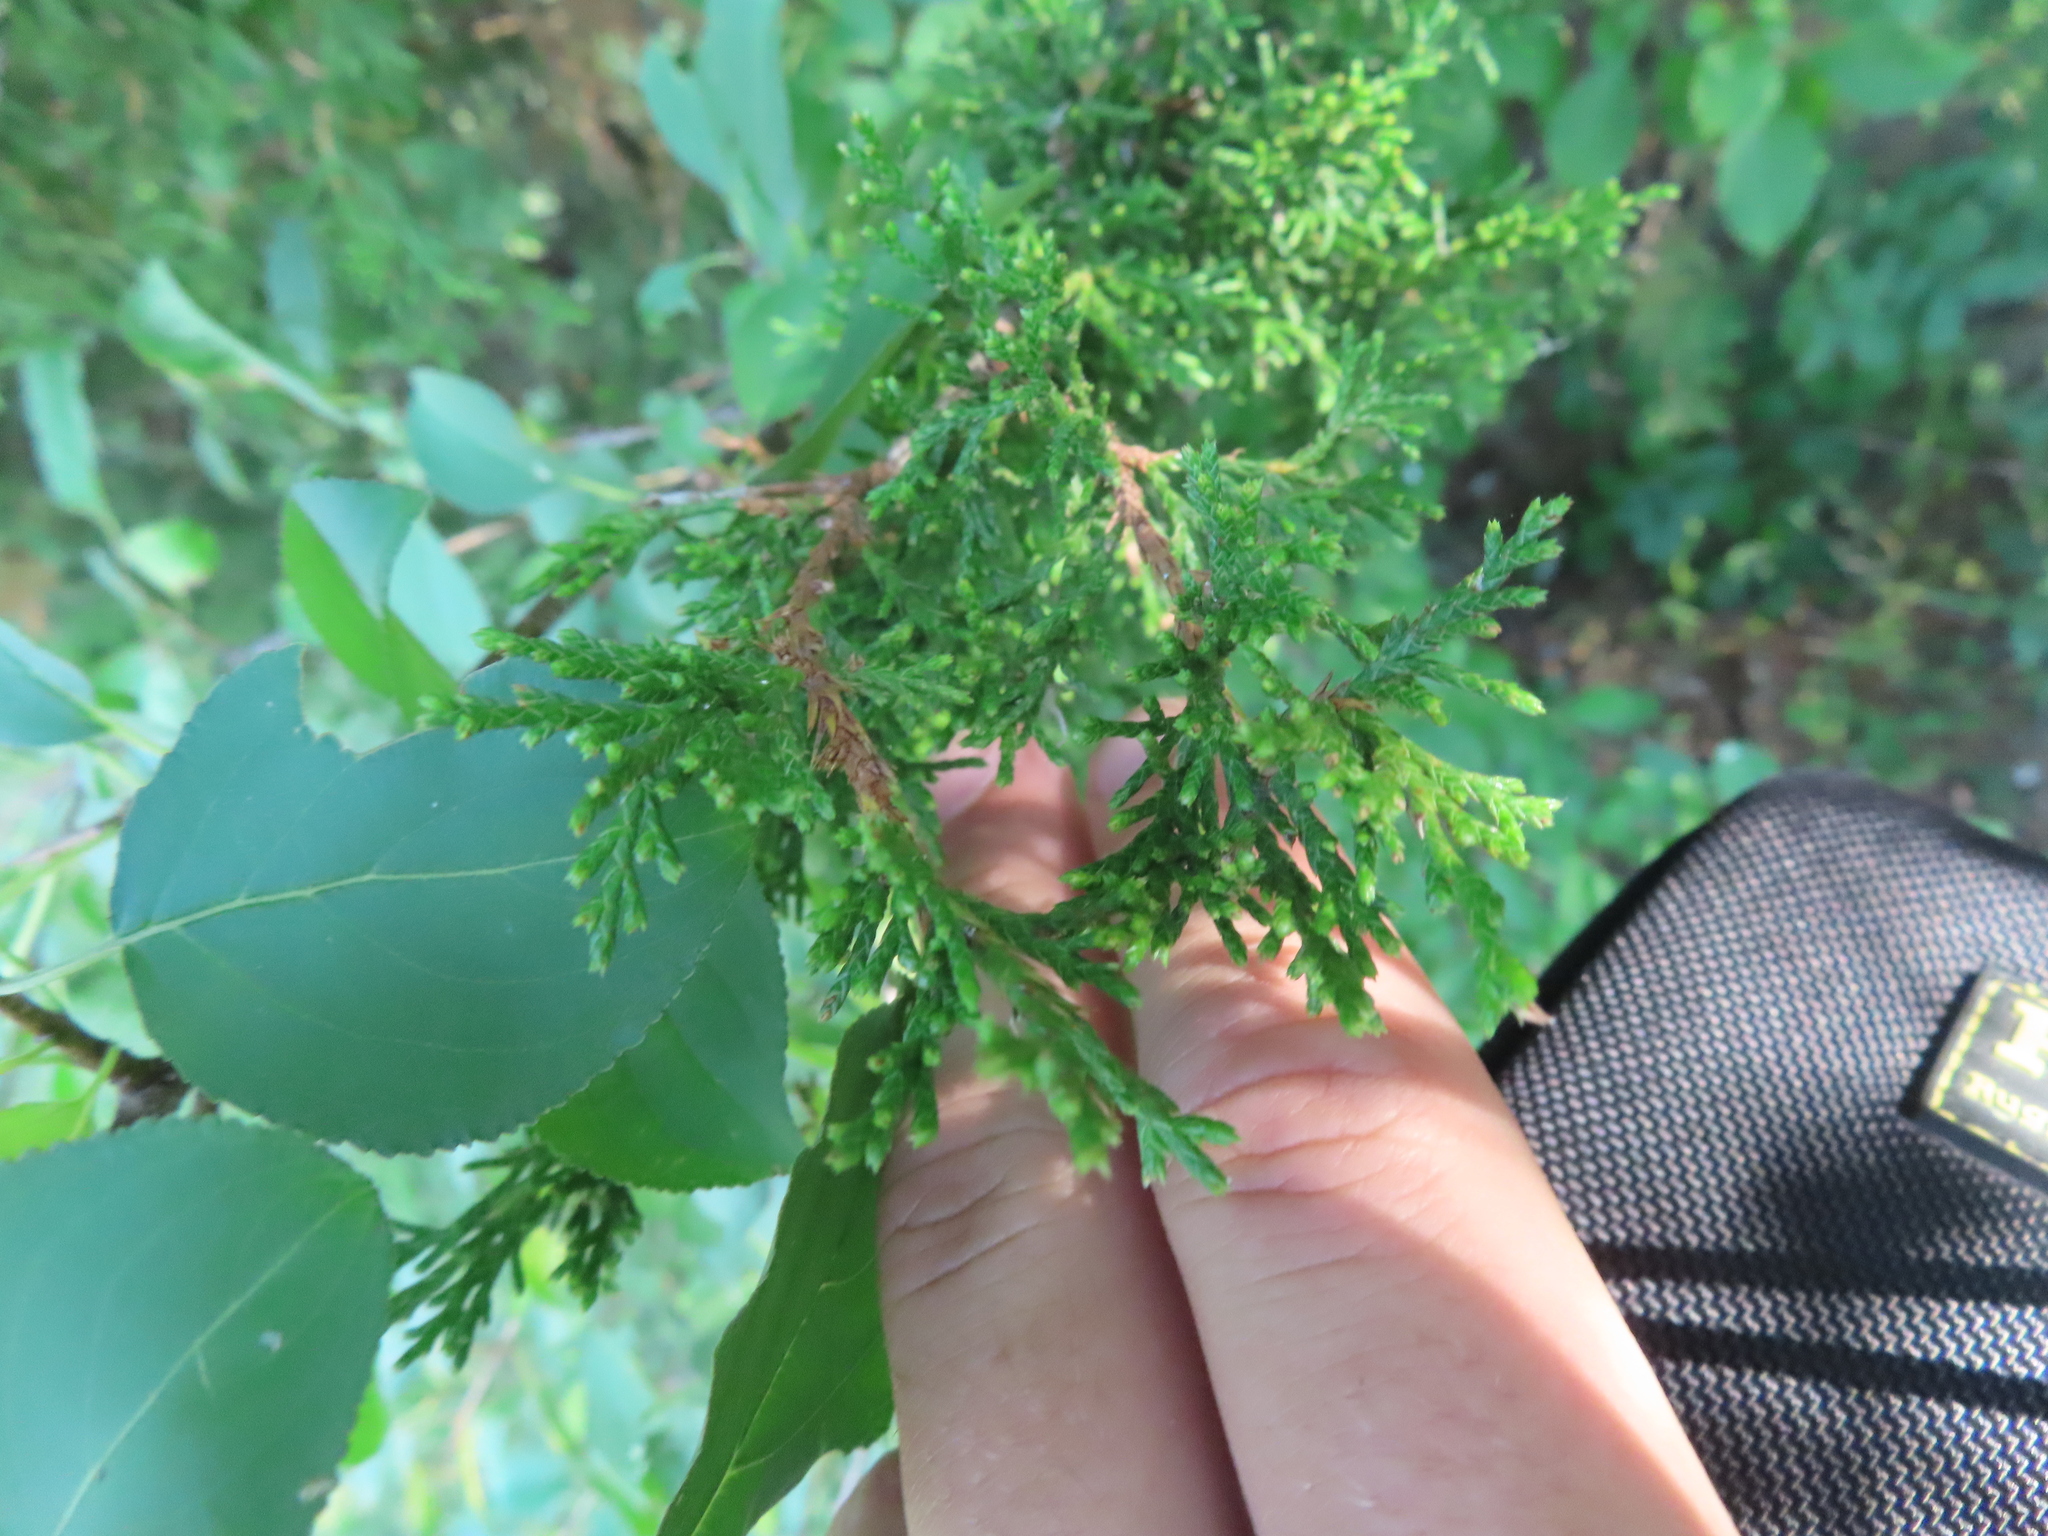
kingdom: Plantae
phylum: Tracheophyta
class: Pinopsida
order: Pinales
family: Cupressaceae
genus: Juniperus
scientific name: Juniperus virginiana
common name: Red juniper
